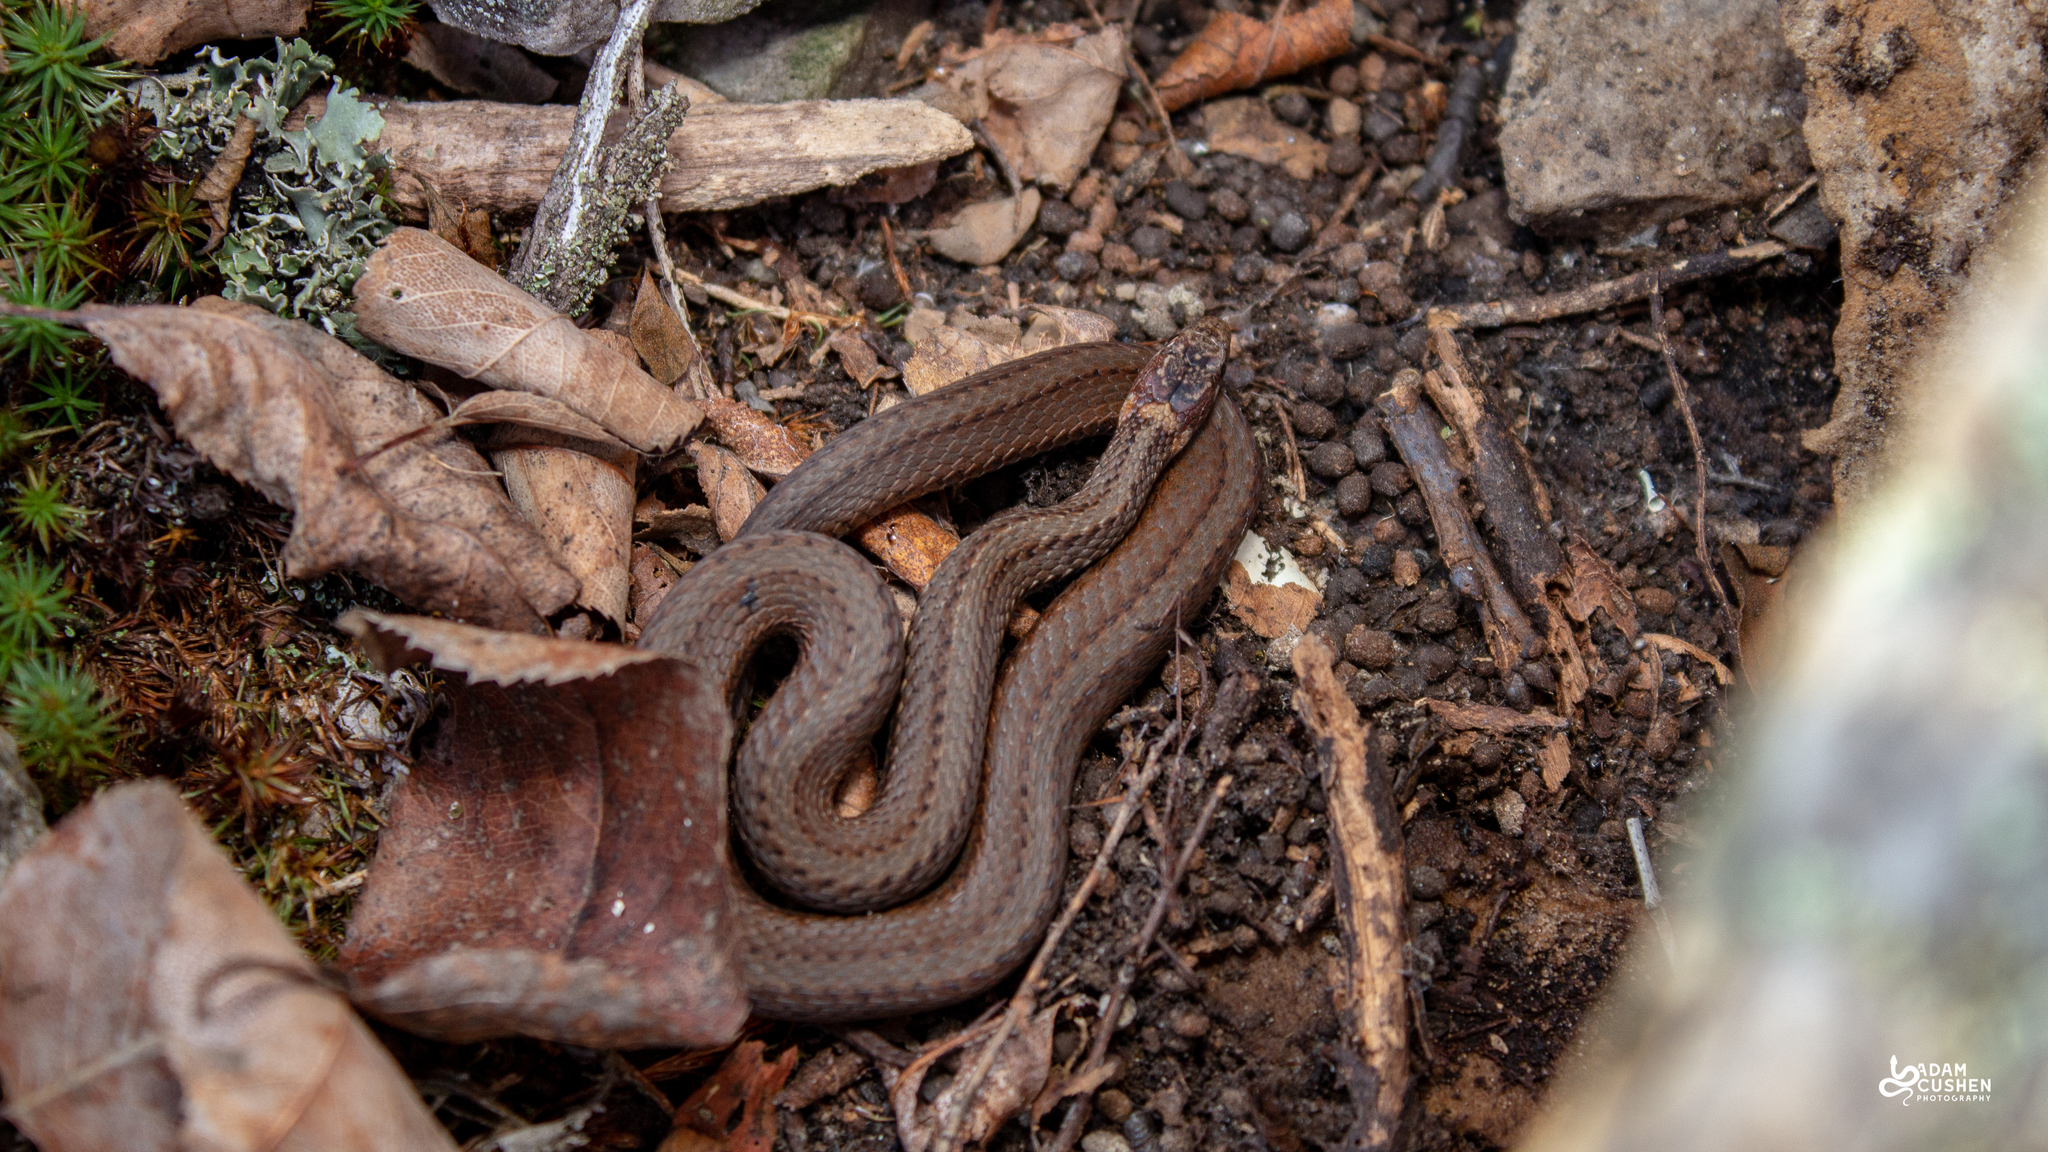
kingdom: Animalia
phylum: Chordata
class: Squamata
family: Colubridae
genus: Storeria
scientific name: Storeria occipitomaculata
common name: Redbelly snake
